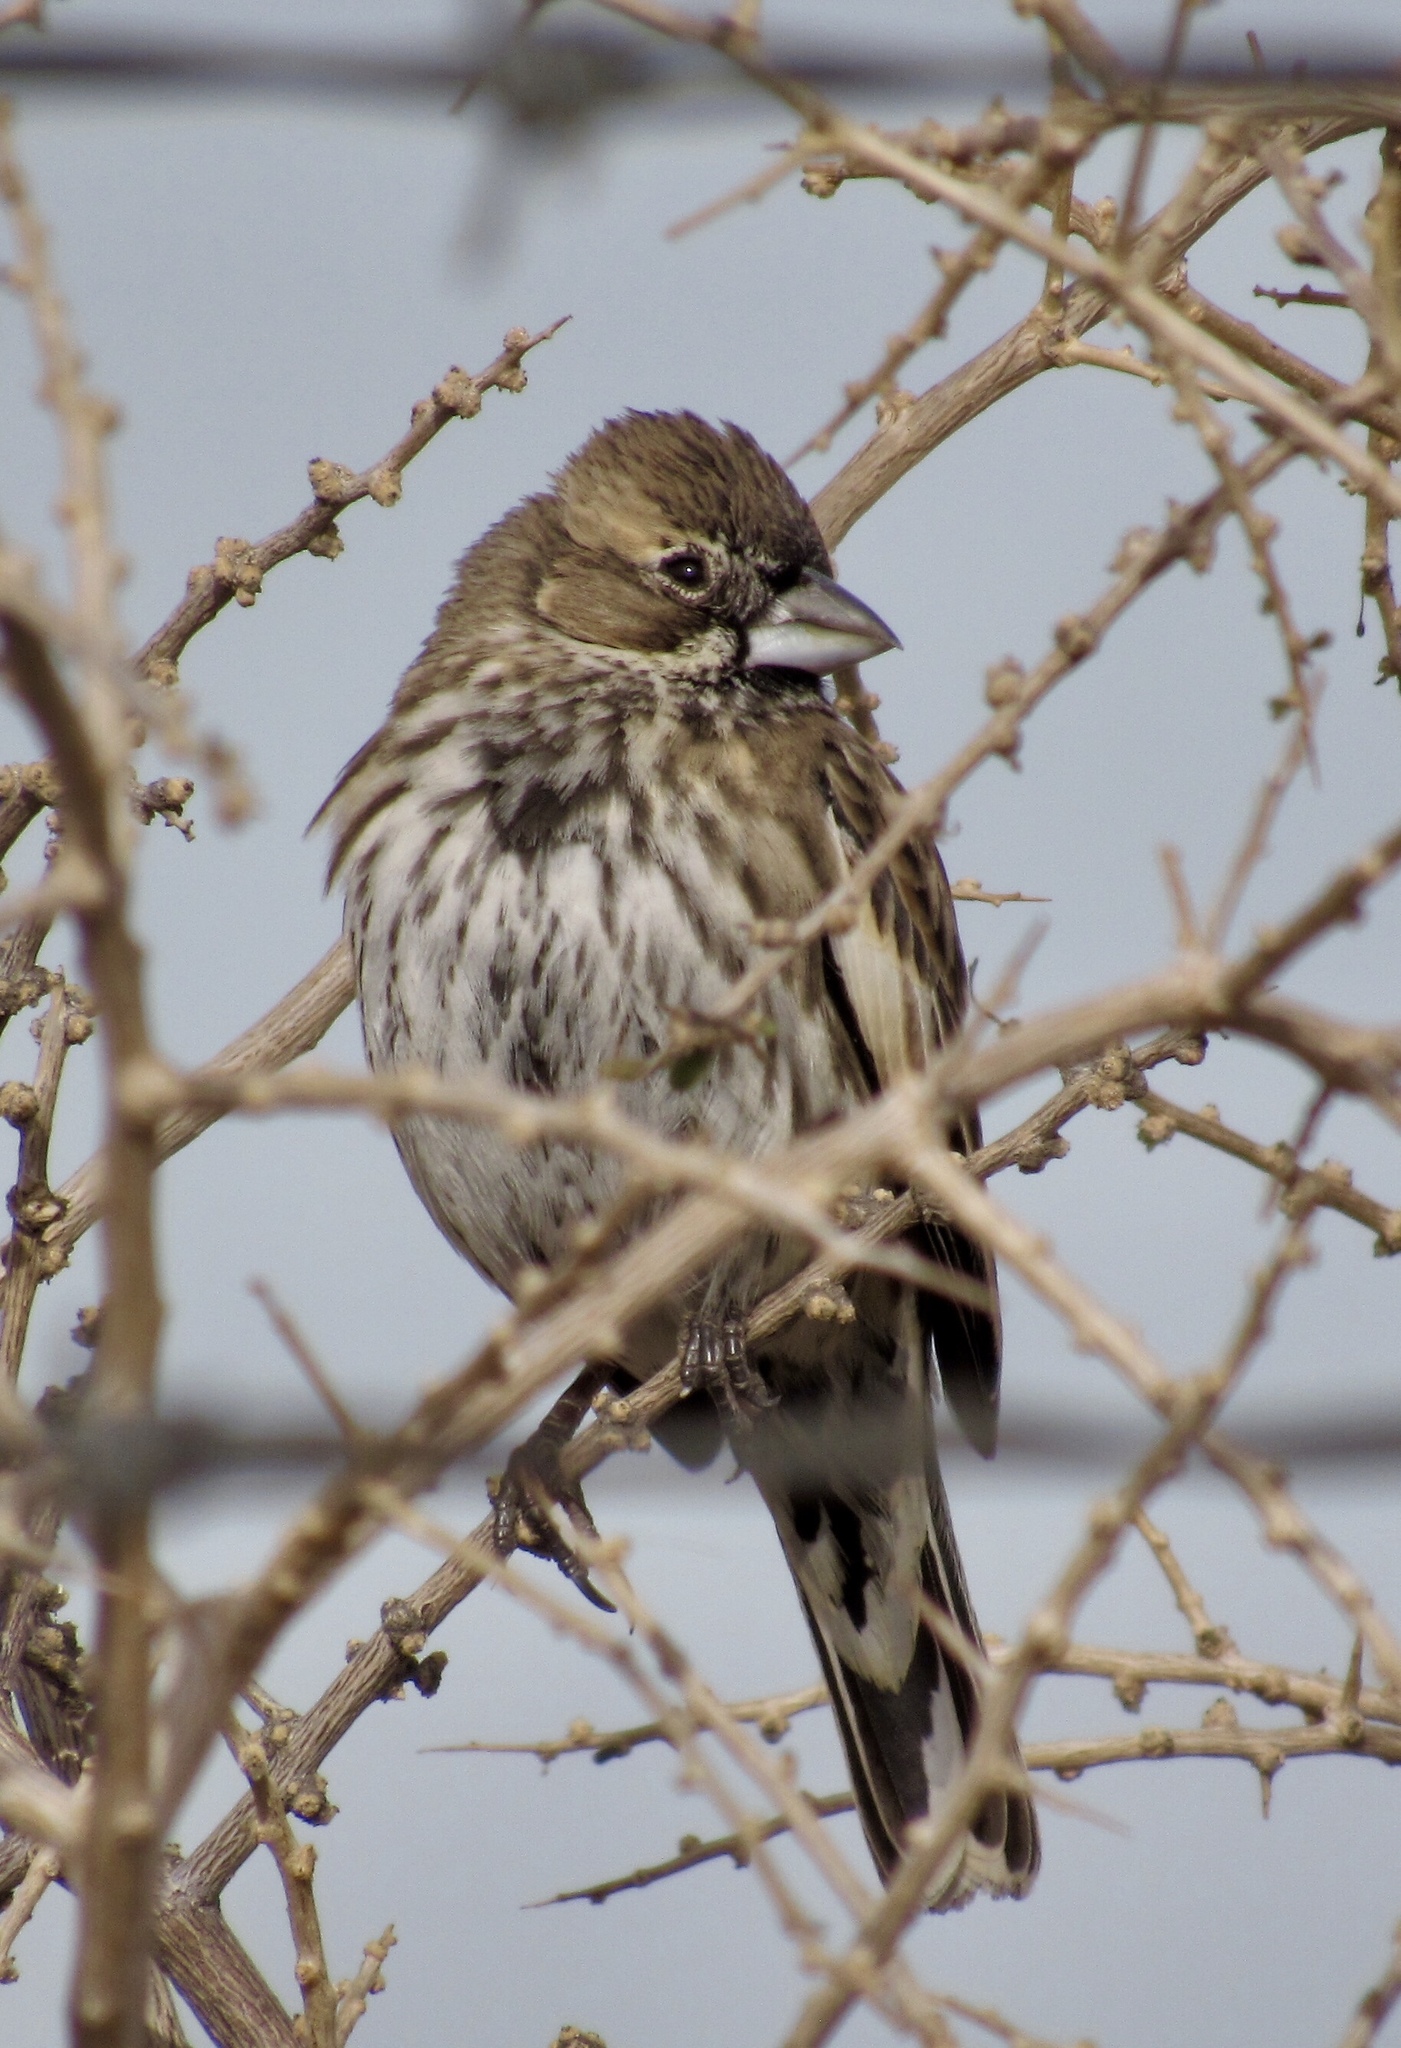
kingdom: Animalia
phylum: Chordata
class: Aves
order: Passeriformes
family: Passerellidae
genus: Calamospiza
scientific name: Calamospiza melanocorys
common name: Lark bunting
